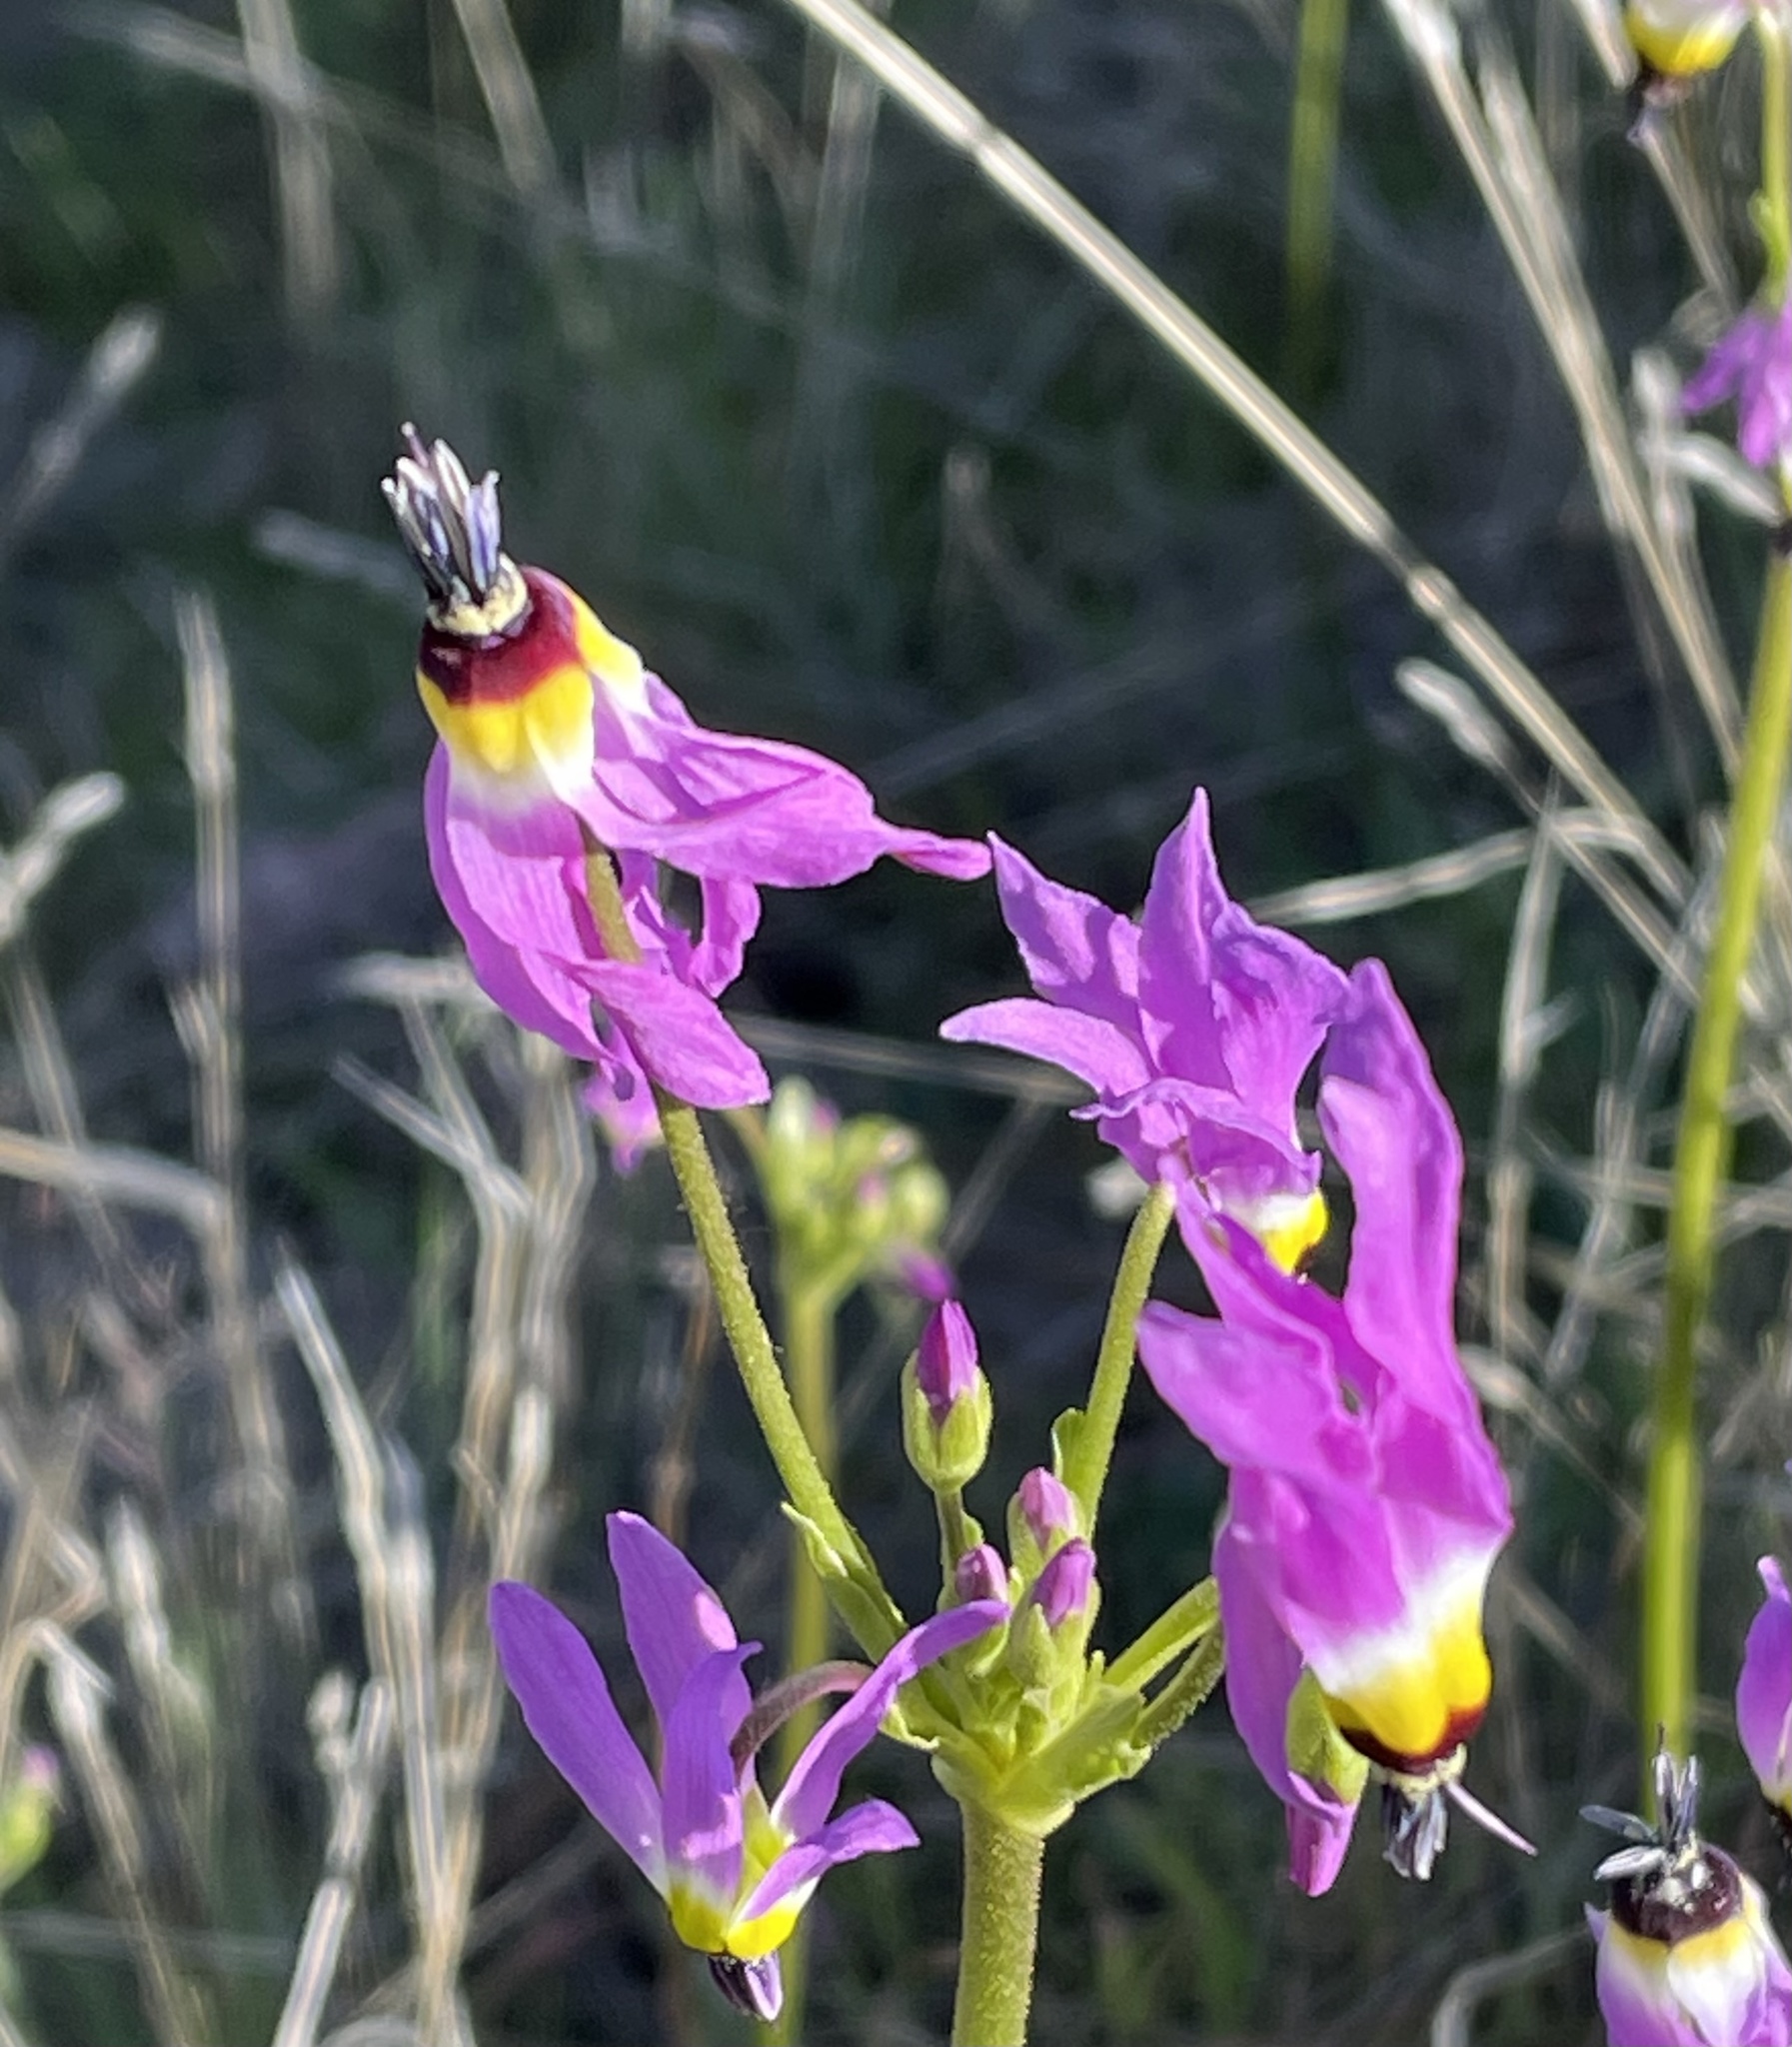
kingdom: Plantae
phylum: Tracheophyta
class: Magnoliopsida
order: Ericales
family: Primulaceae
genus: Dodecatheon
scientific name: Dodecatheon clevelandii
